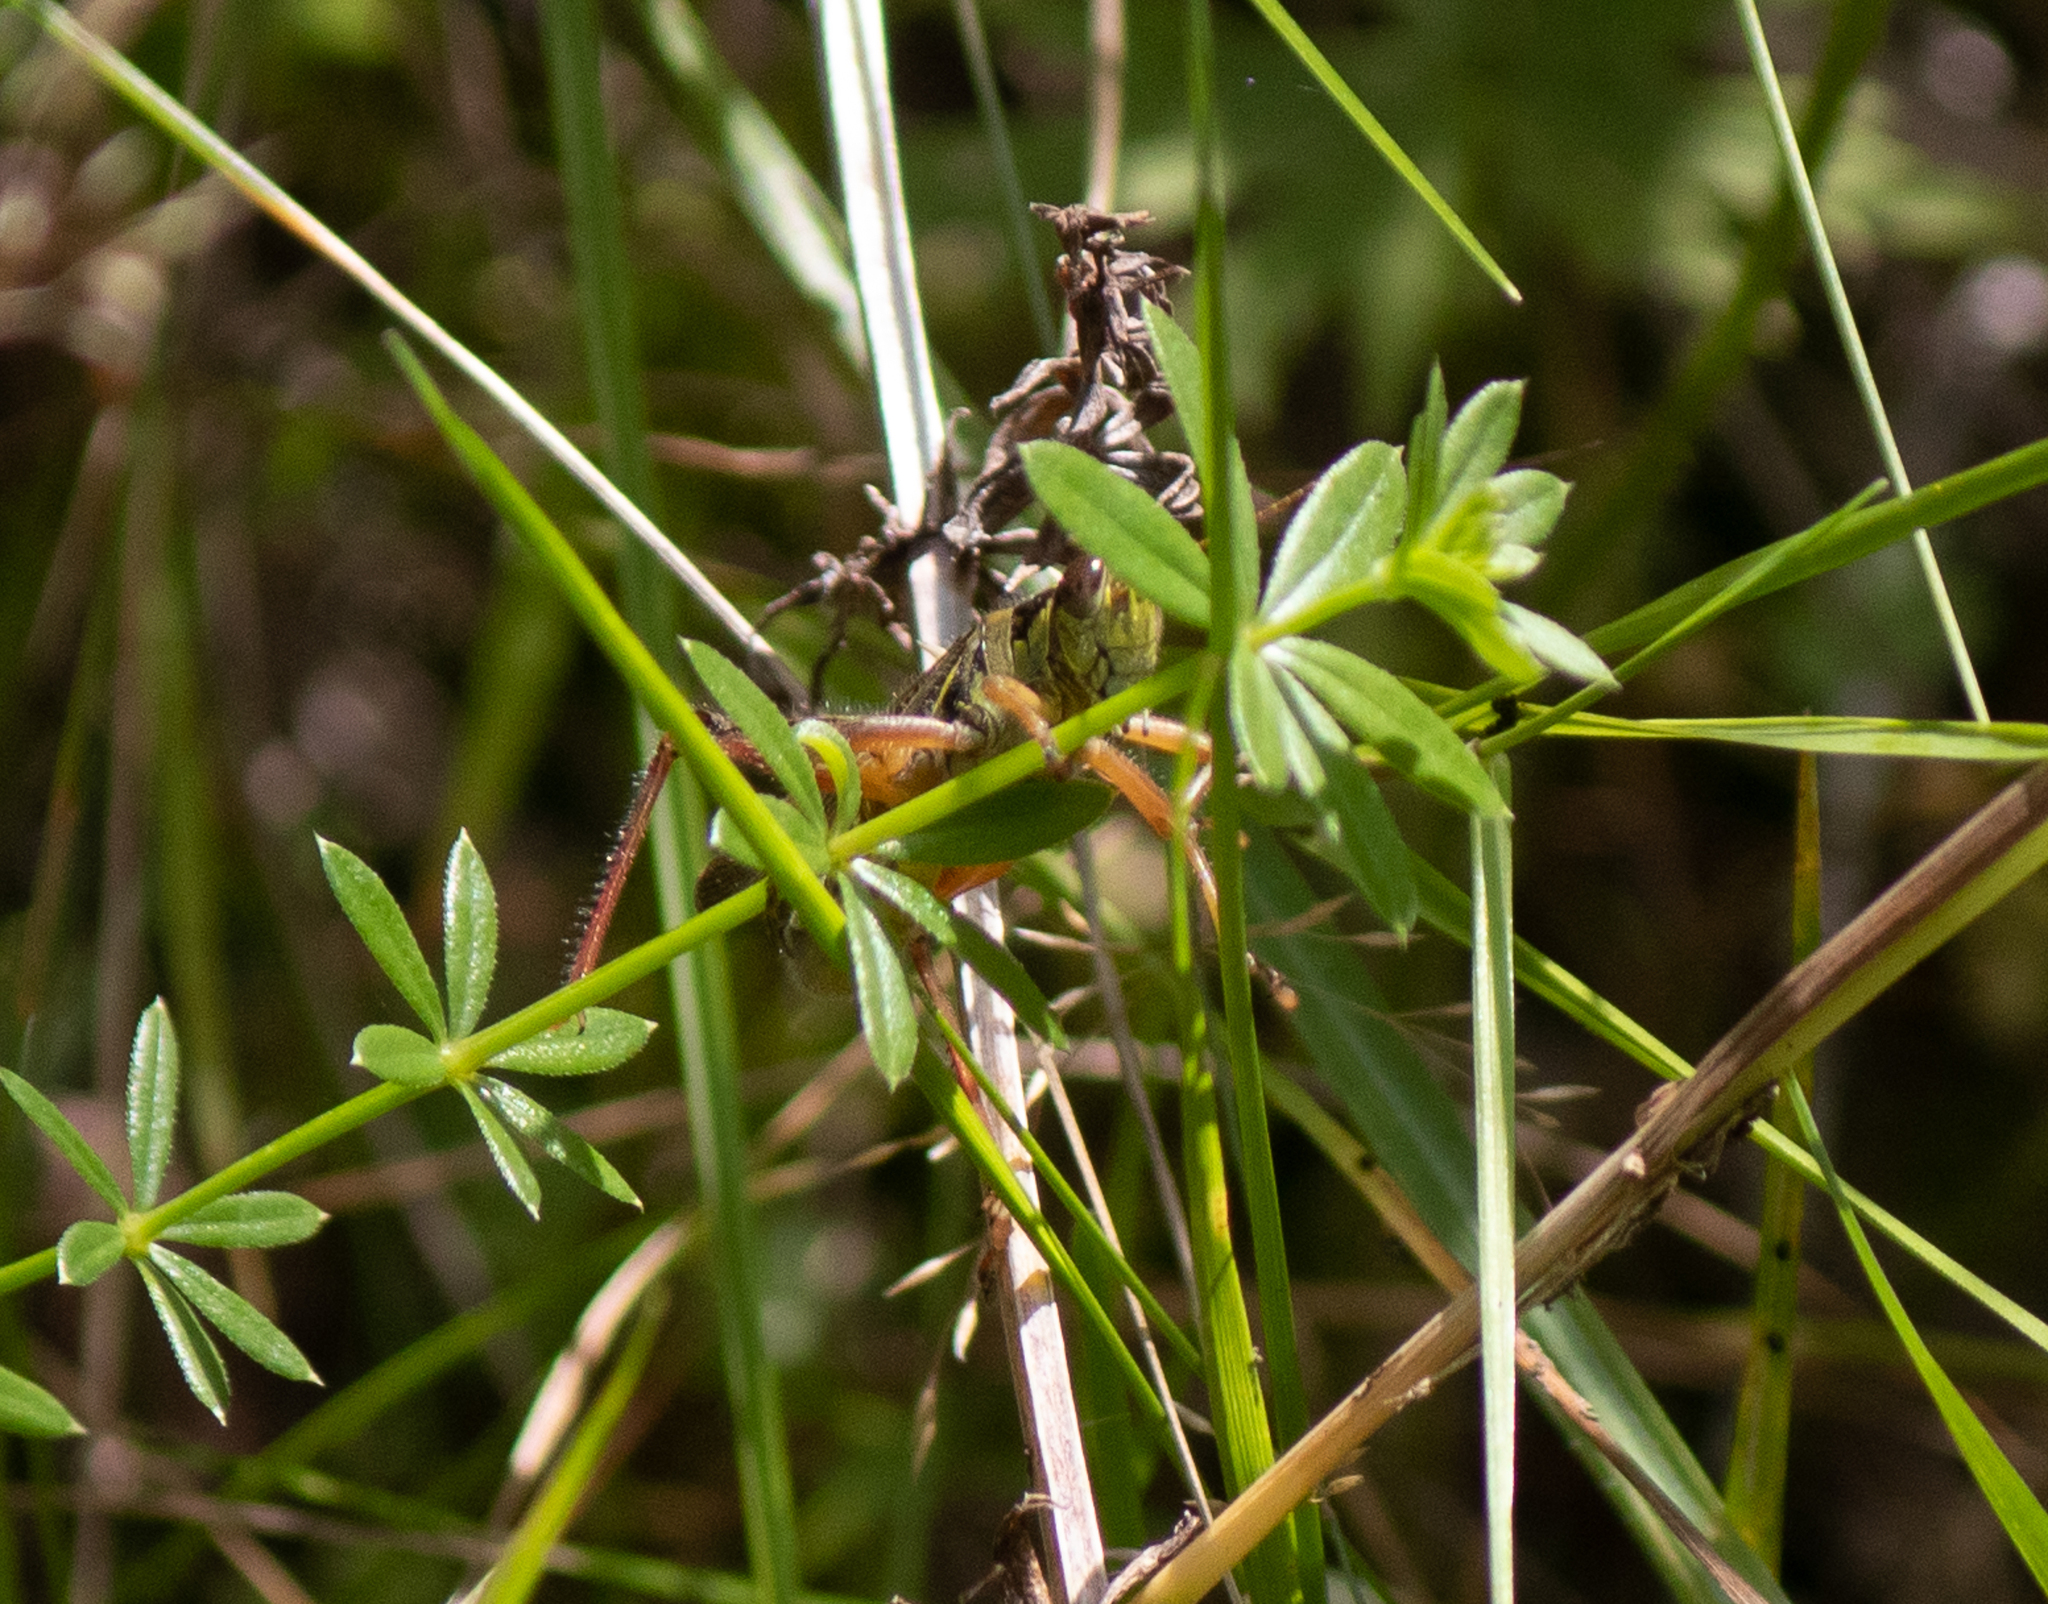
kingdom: Animalia
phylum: Arthropoda
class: Insecta
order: Orthoptera
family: Acrididae
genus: Melanoplus
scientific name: Melanoplus femurrubrum
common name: Red-legged grasshopper
